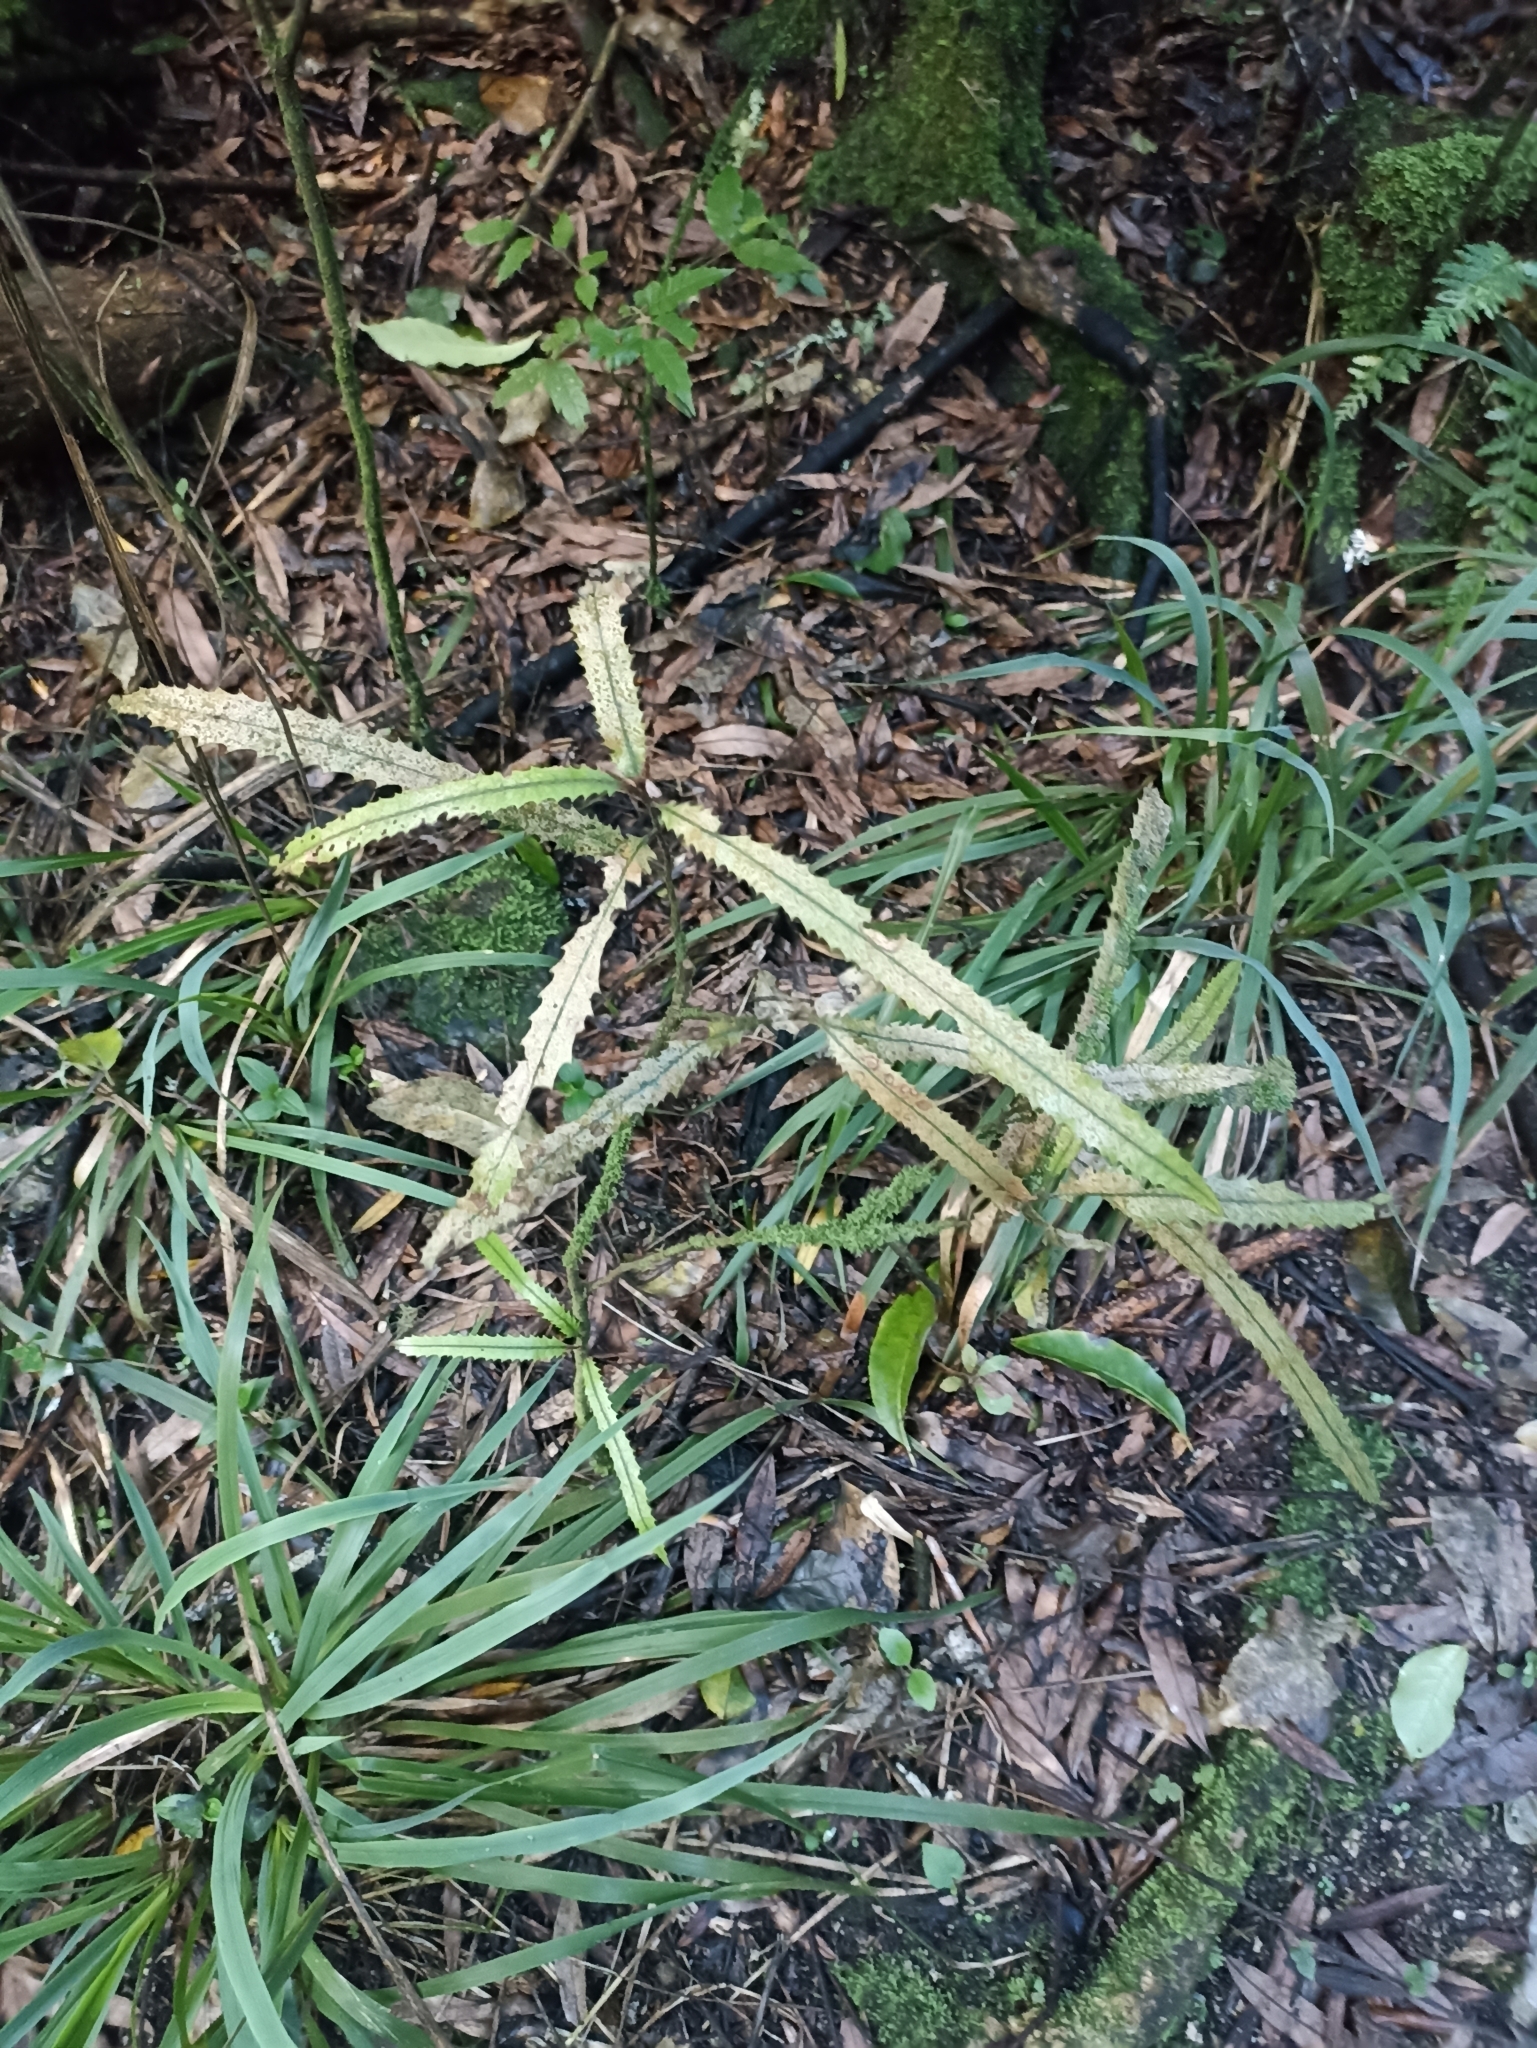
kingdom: Plantae
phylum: Tracheophyta
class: Magnoliopsida
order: Proteales
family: Proteaceae
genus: Knightia
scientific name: Knightia excelsa
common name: New zealand-honeysuckle
